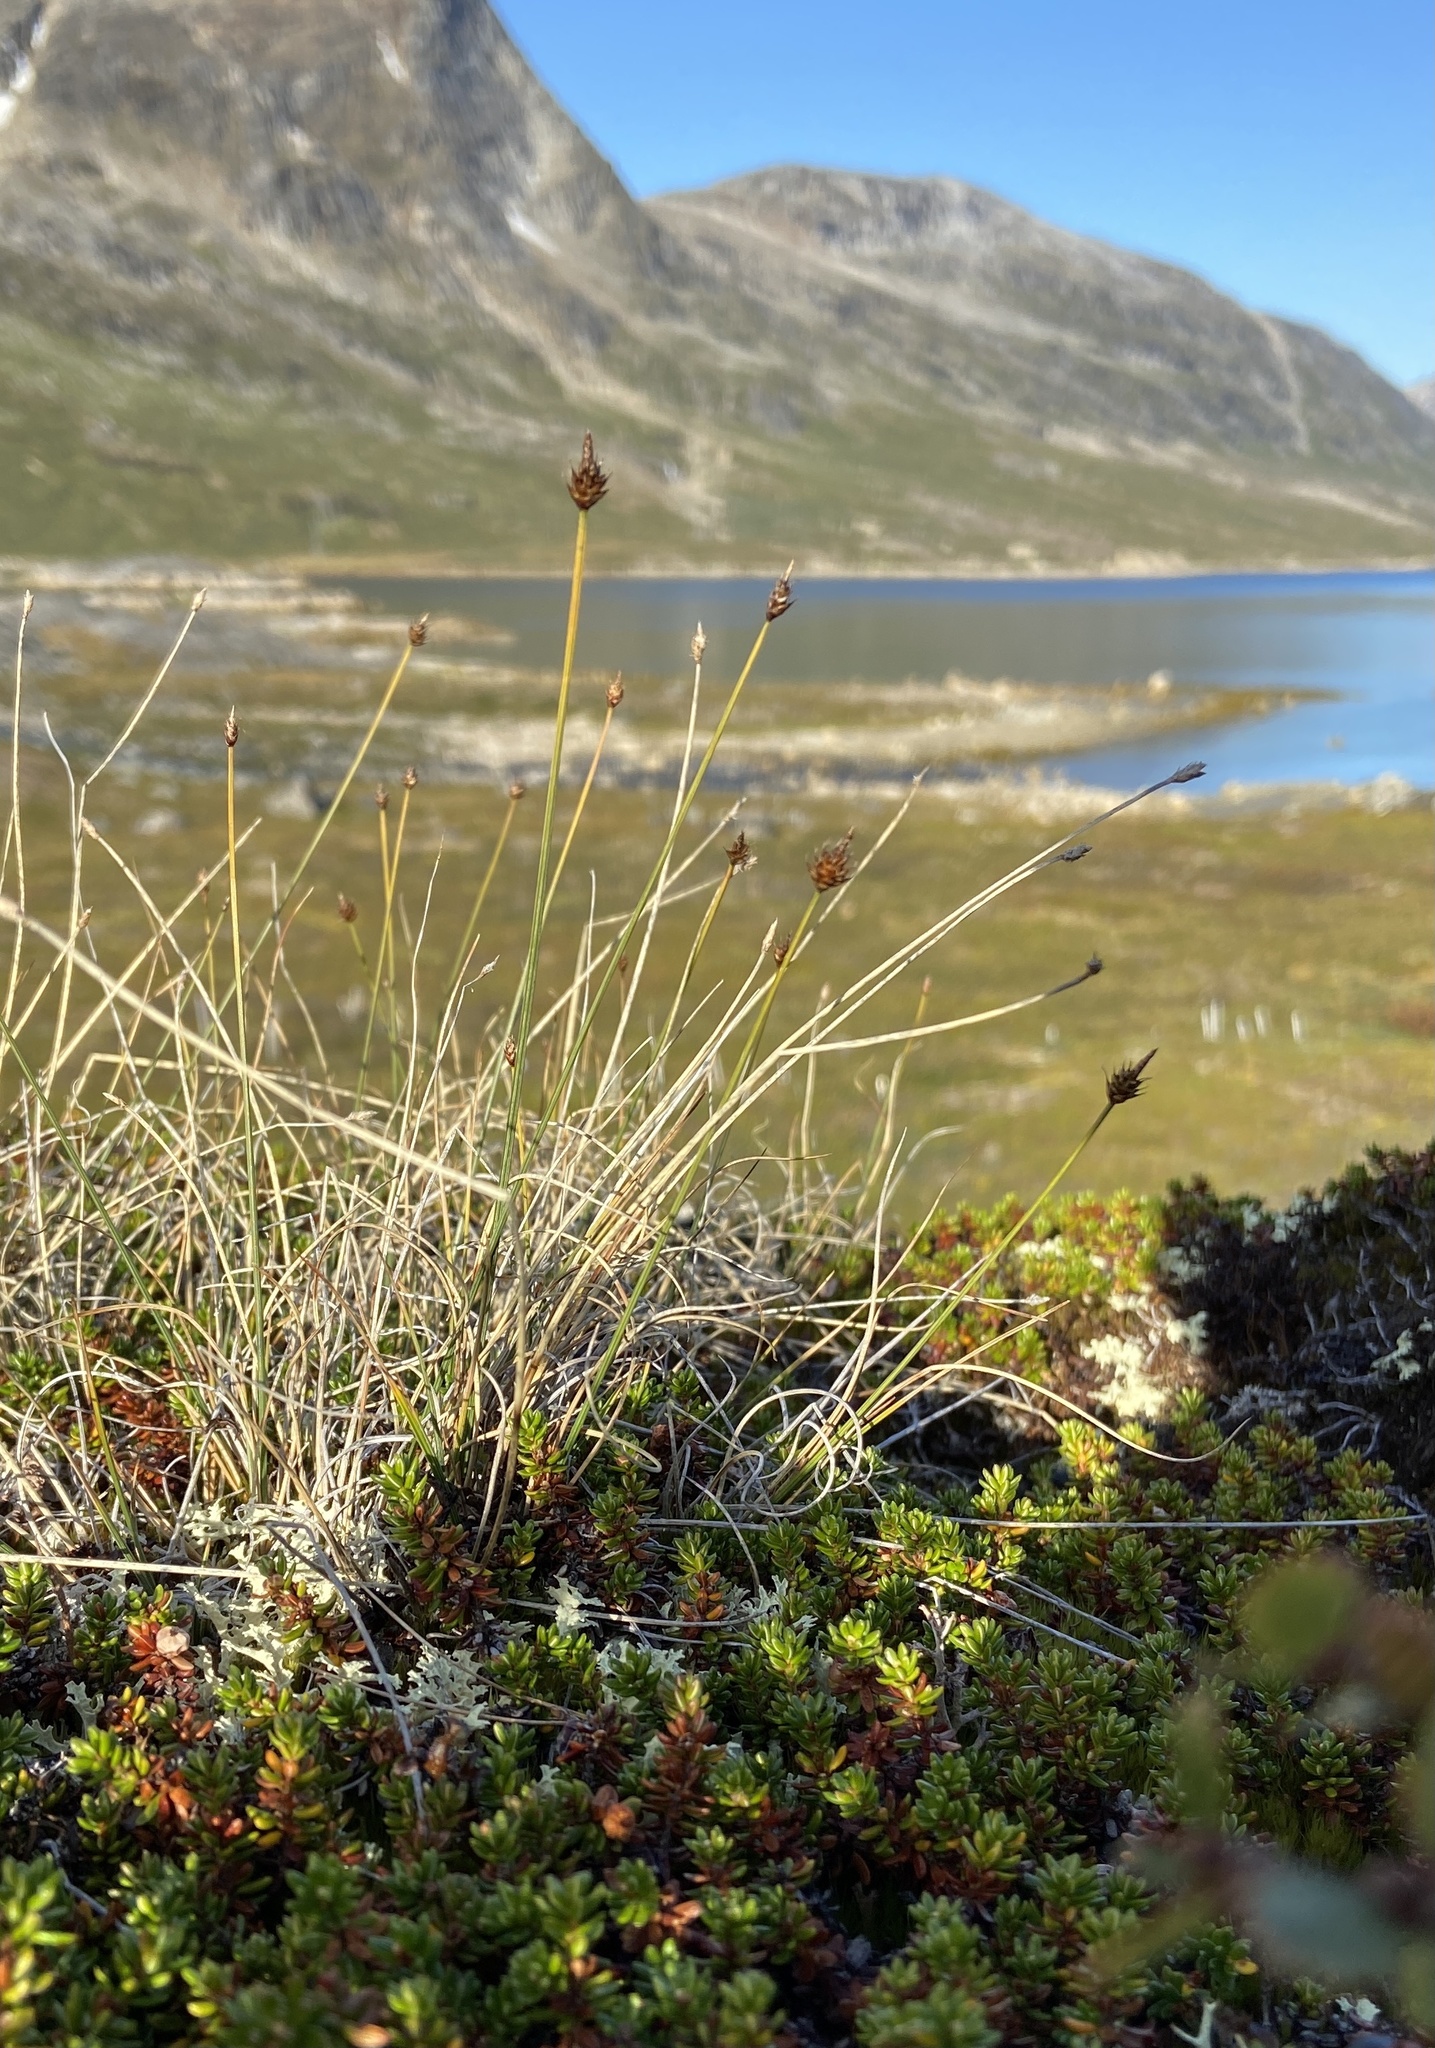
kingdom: Plantae
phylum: Tracheophyta
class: Liliopsida
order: Poales
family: Cyperaceae
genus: Carex
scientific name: Carex capitata
